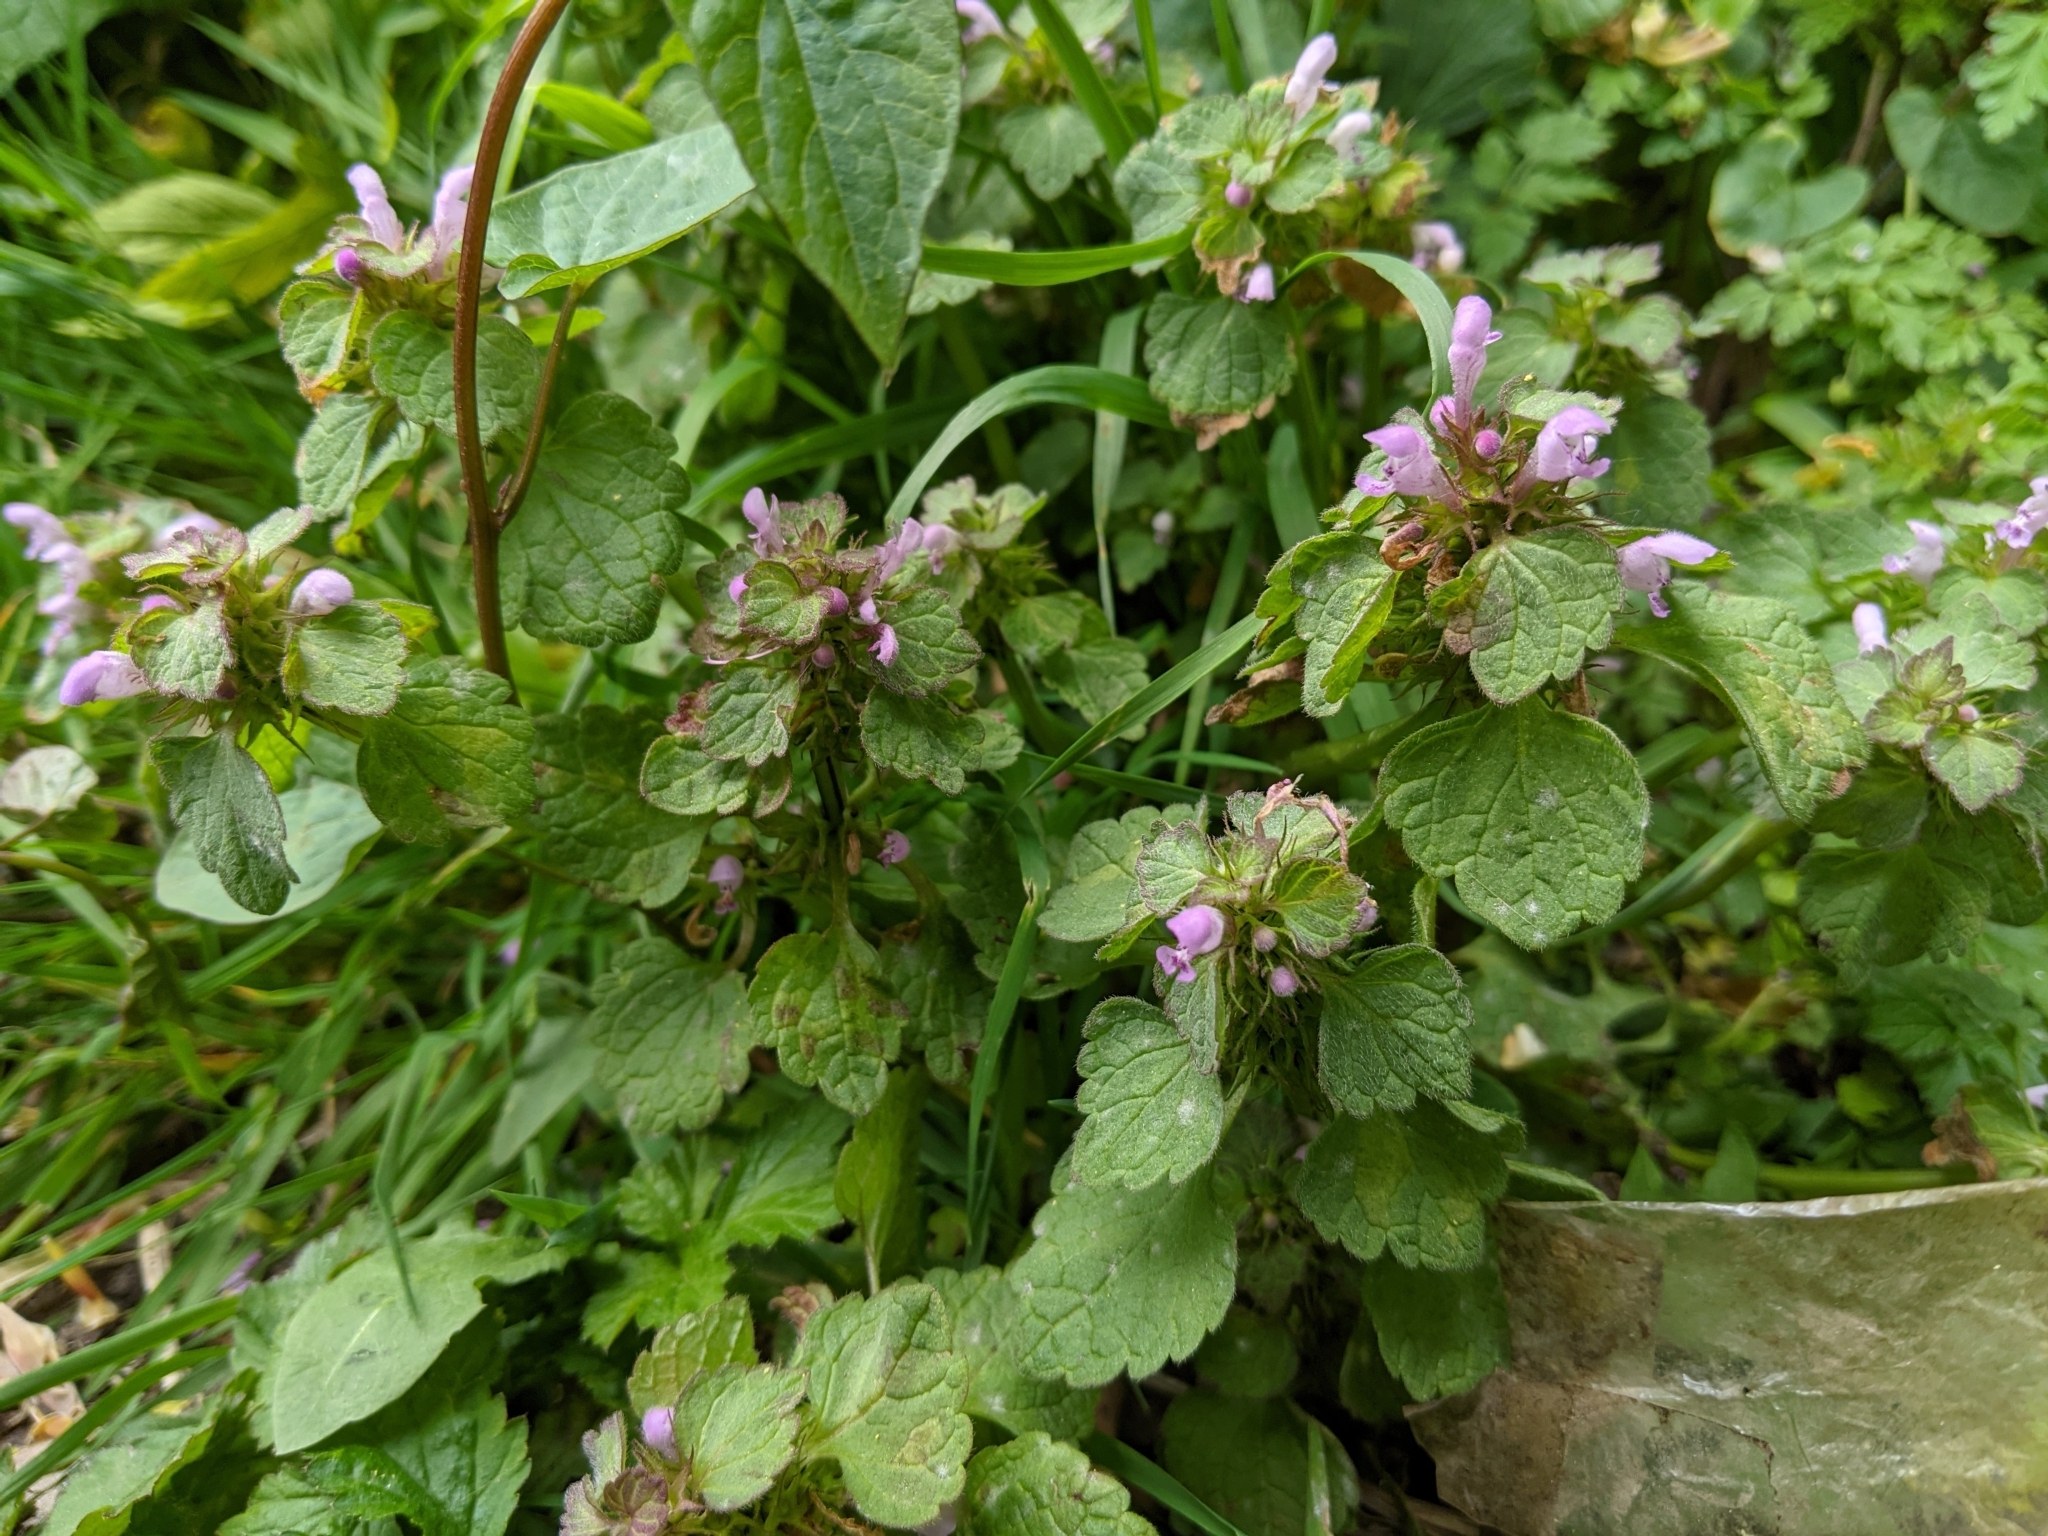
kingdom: Plantae
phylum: Tracheophyta
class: Magnoliopsida
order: Lamiales
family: Lamiaceae
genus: Lamium
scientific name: Lamium purpureum
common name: Red dead-nettle
